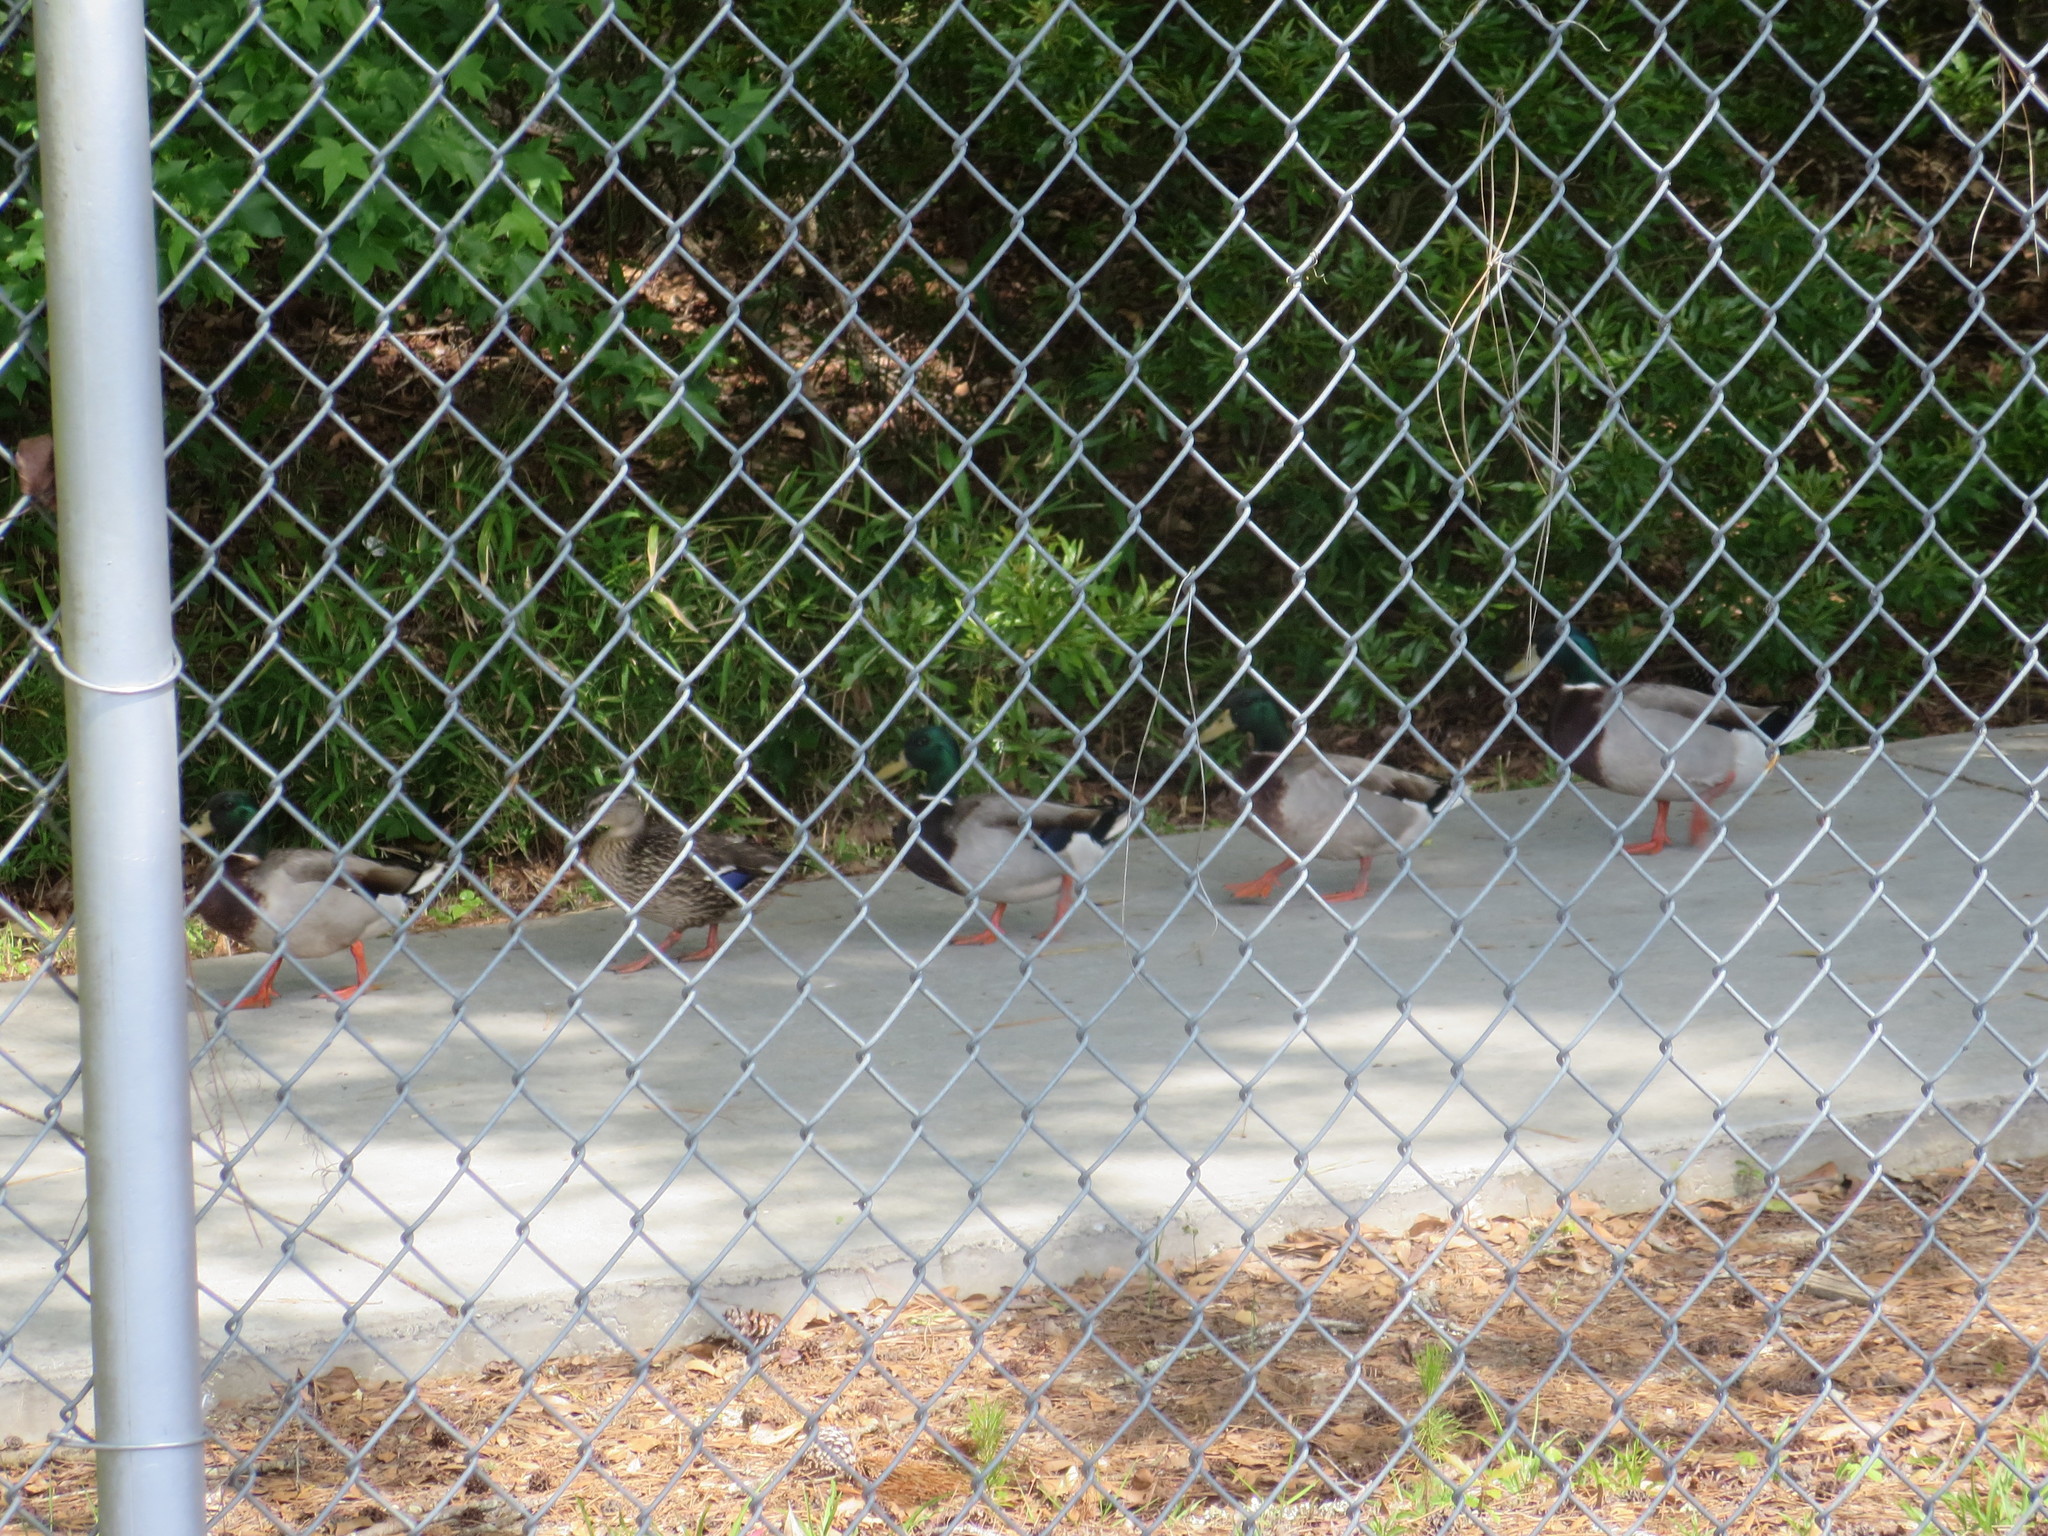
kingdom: Animalia
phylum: Chordata
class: Aves
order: Anseriformes
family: Anatidae
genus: Anas
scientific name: Anas platyrhynchos
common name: Mallard
